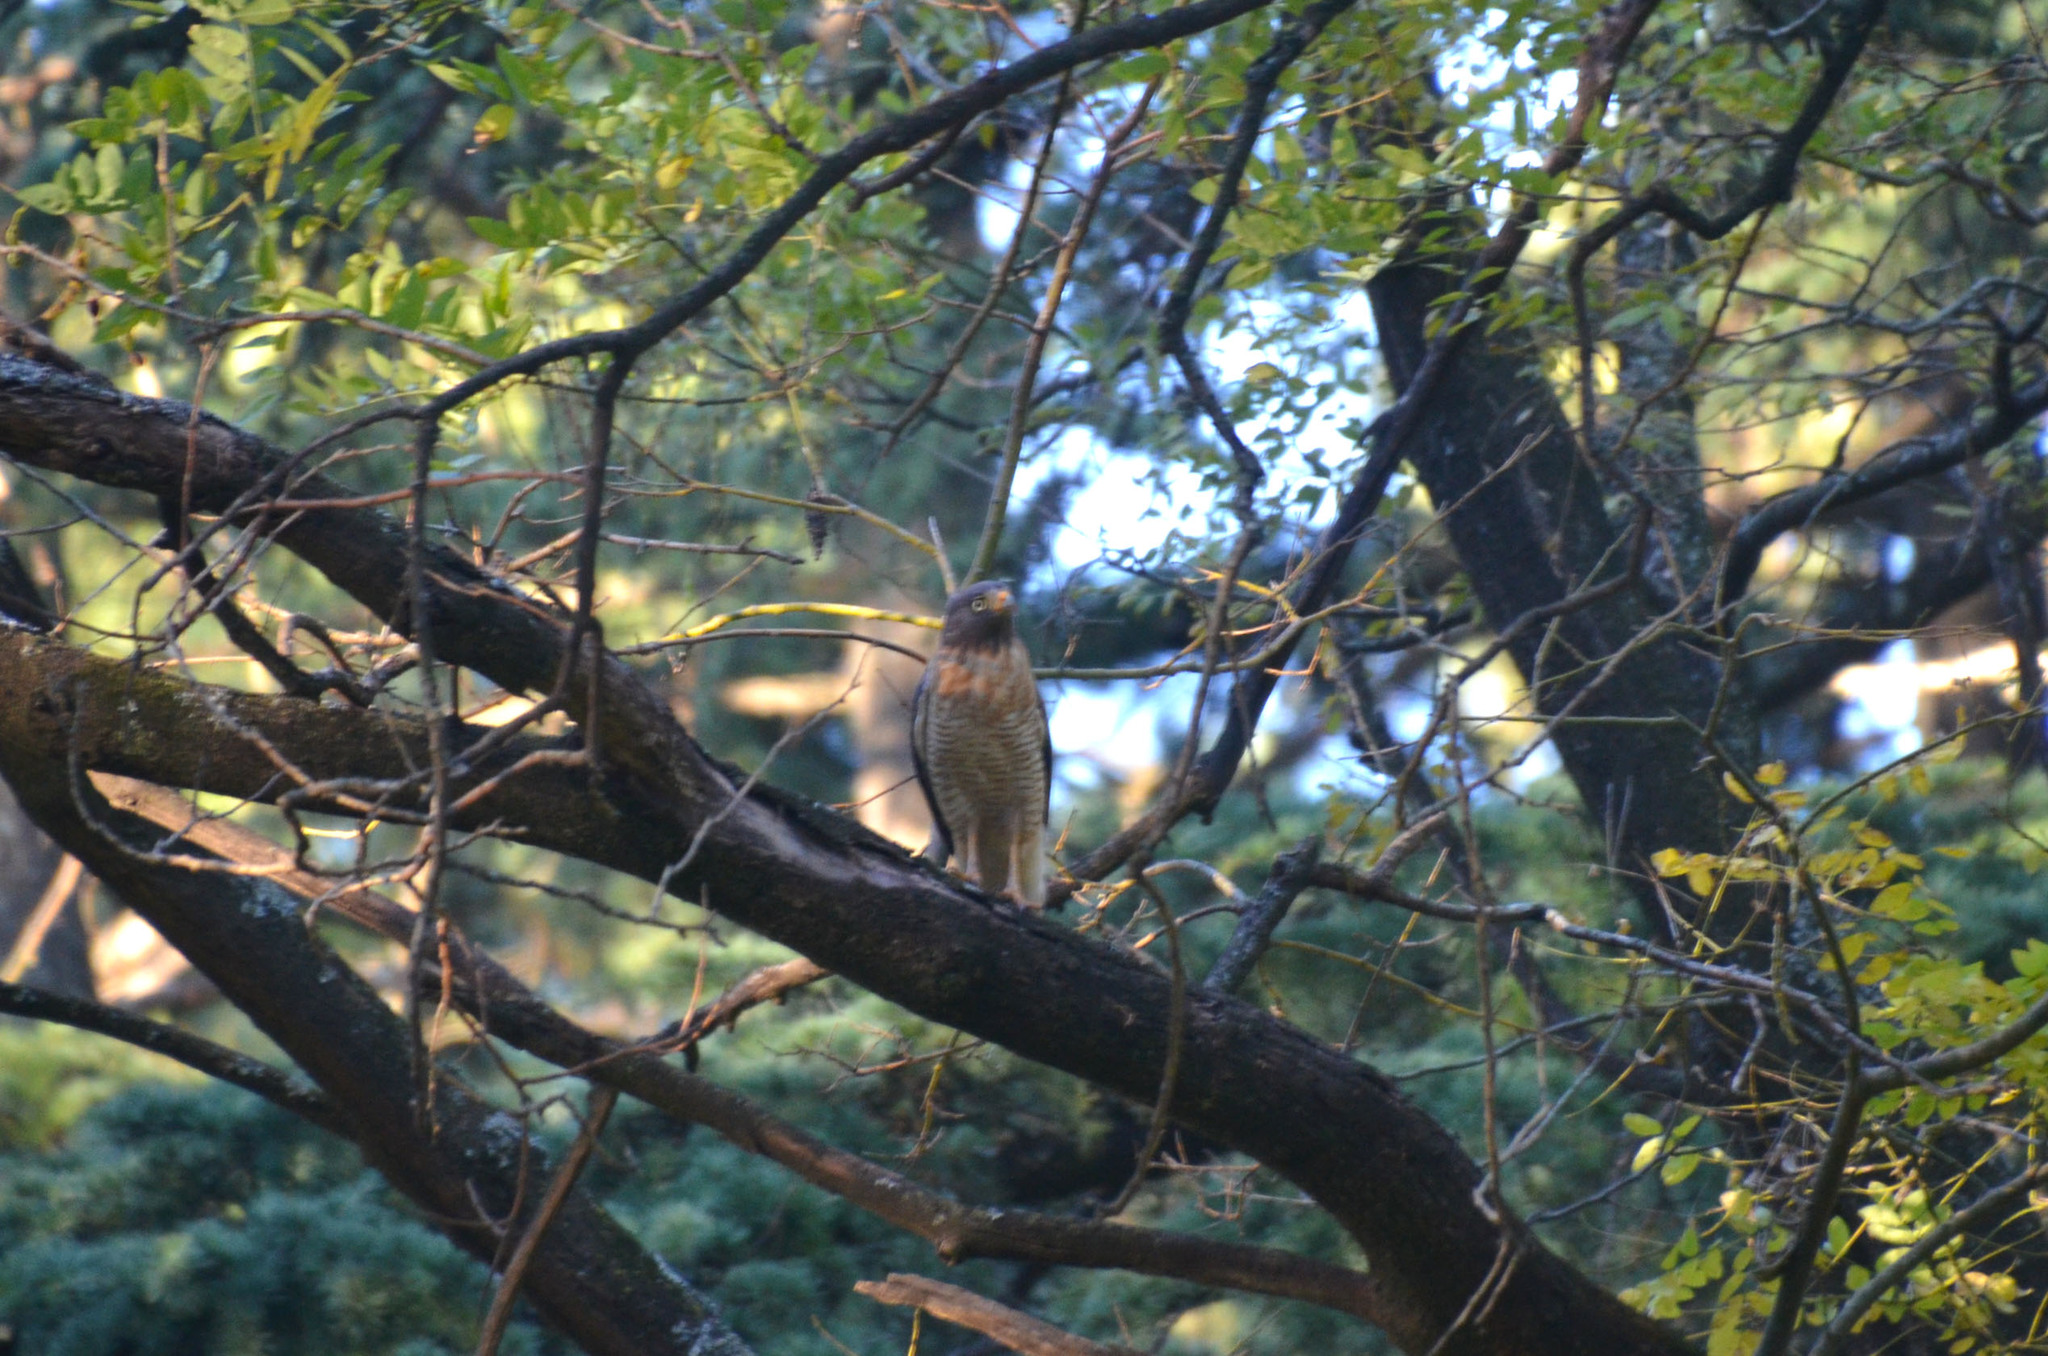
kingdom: Animalia
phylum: Chordata
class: Aves
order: Accipitriformes
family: Accipitridae
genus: Rupornis
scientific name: Rupornis magnirostris
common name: Roadside hawk
